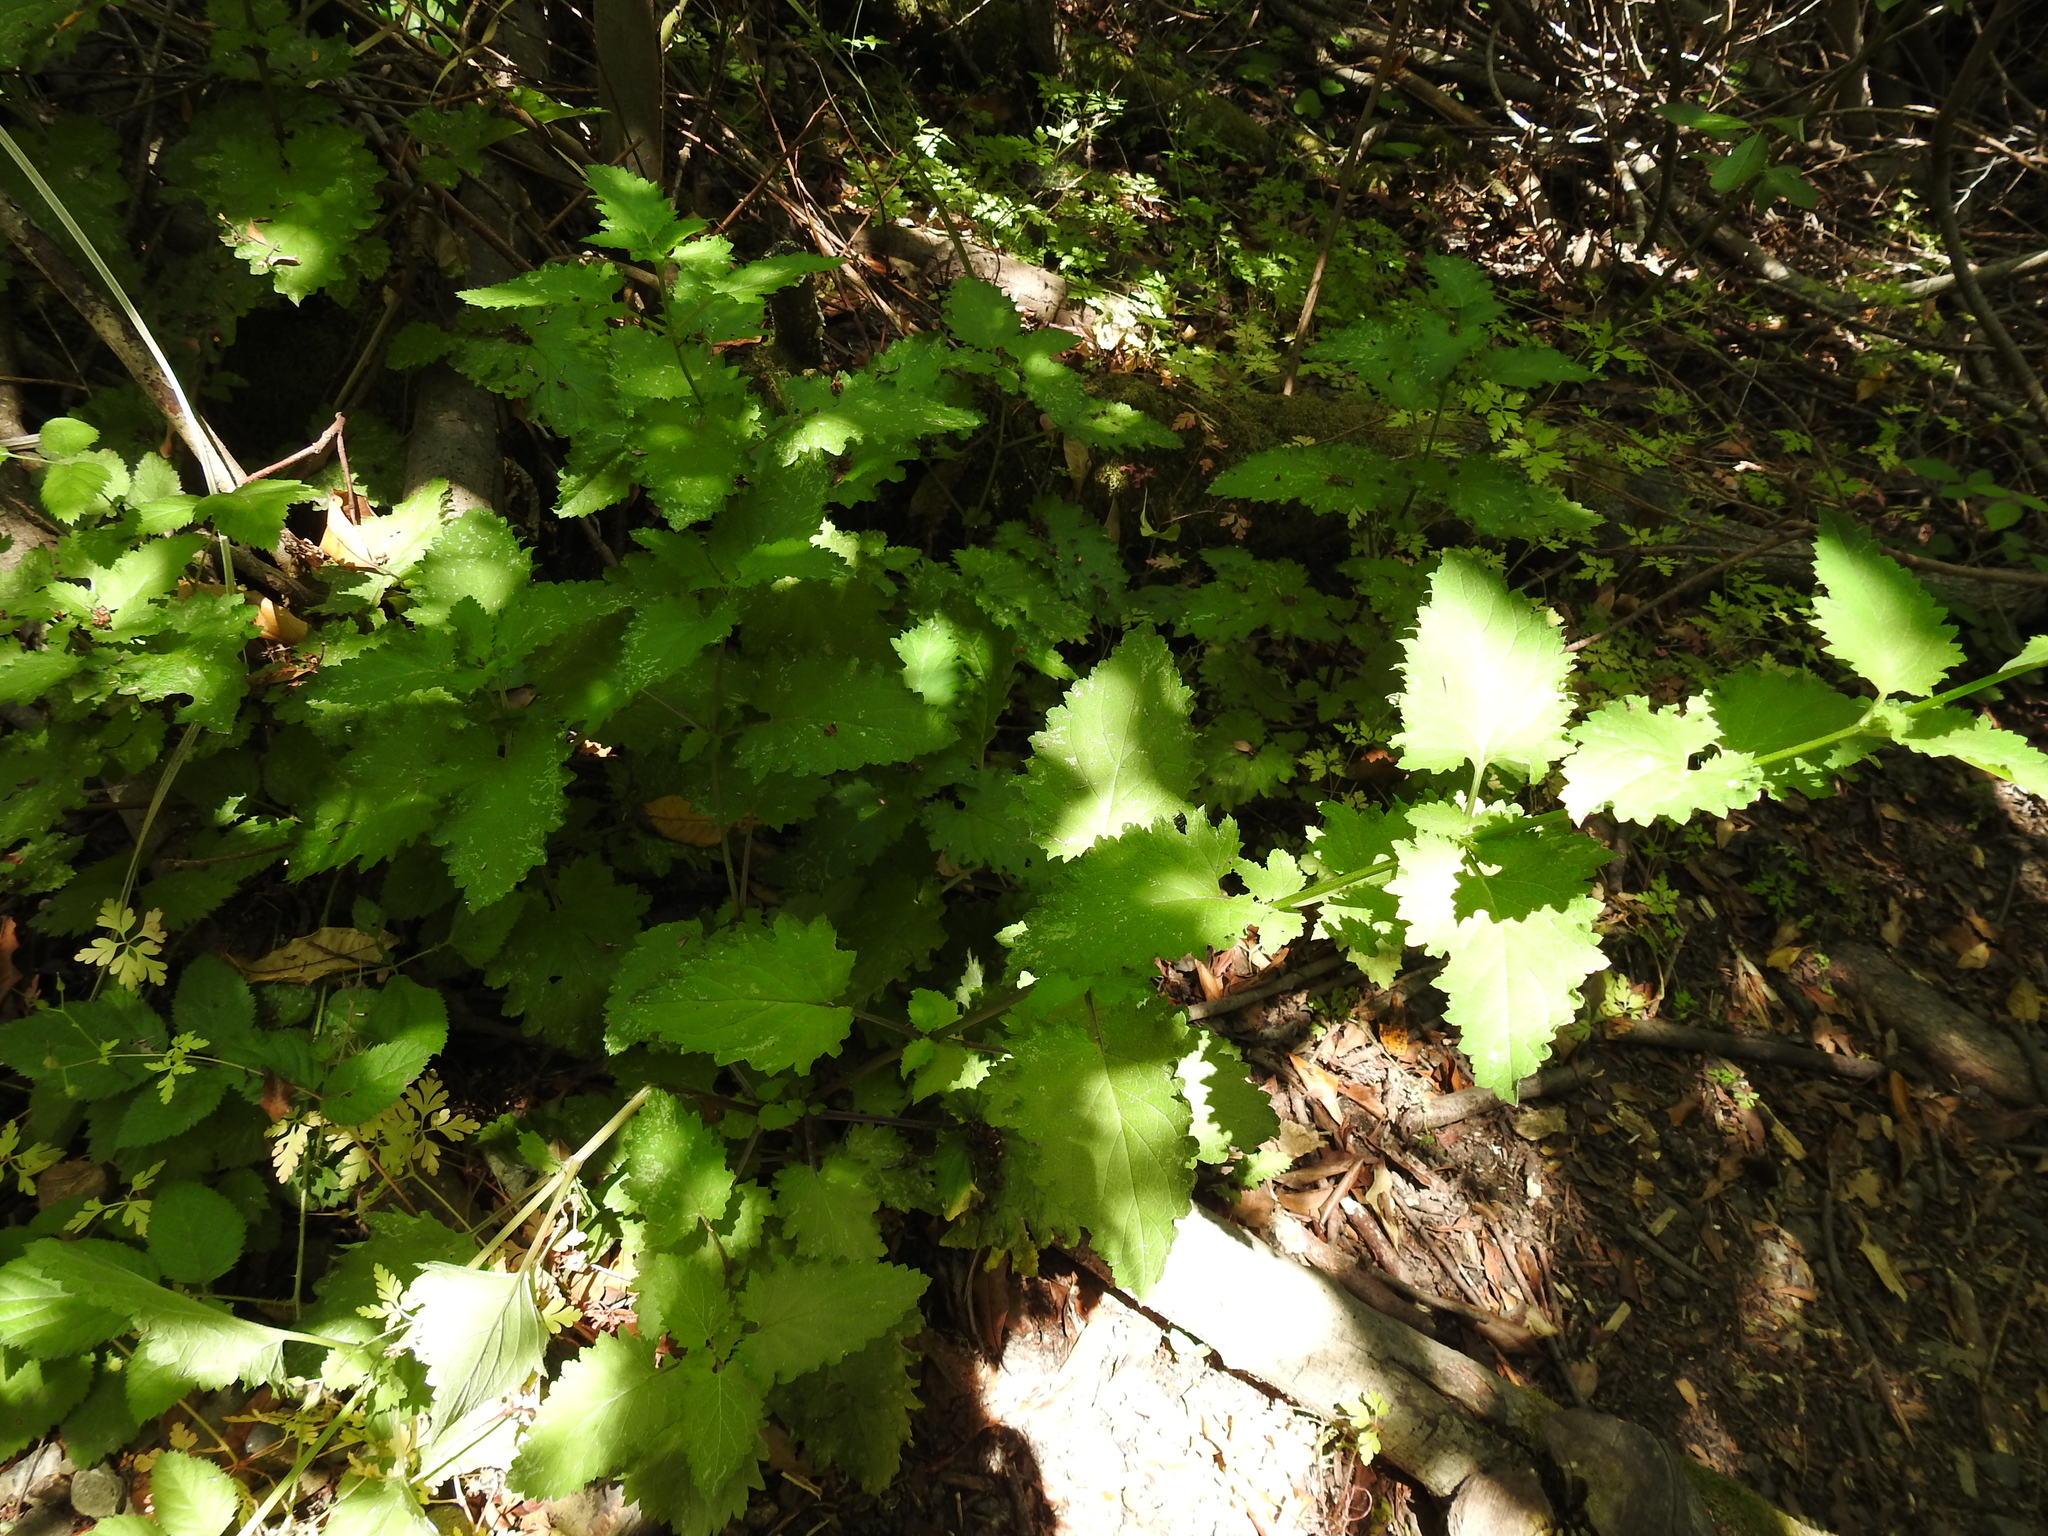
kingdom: Plantae
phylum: Tracheophyta
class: Magnoliopsida
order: Lamiales
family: Scrophulariaceae
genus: Scrophularia
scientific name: Scrophularia californica
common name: California figwort
